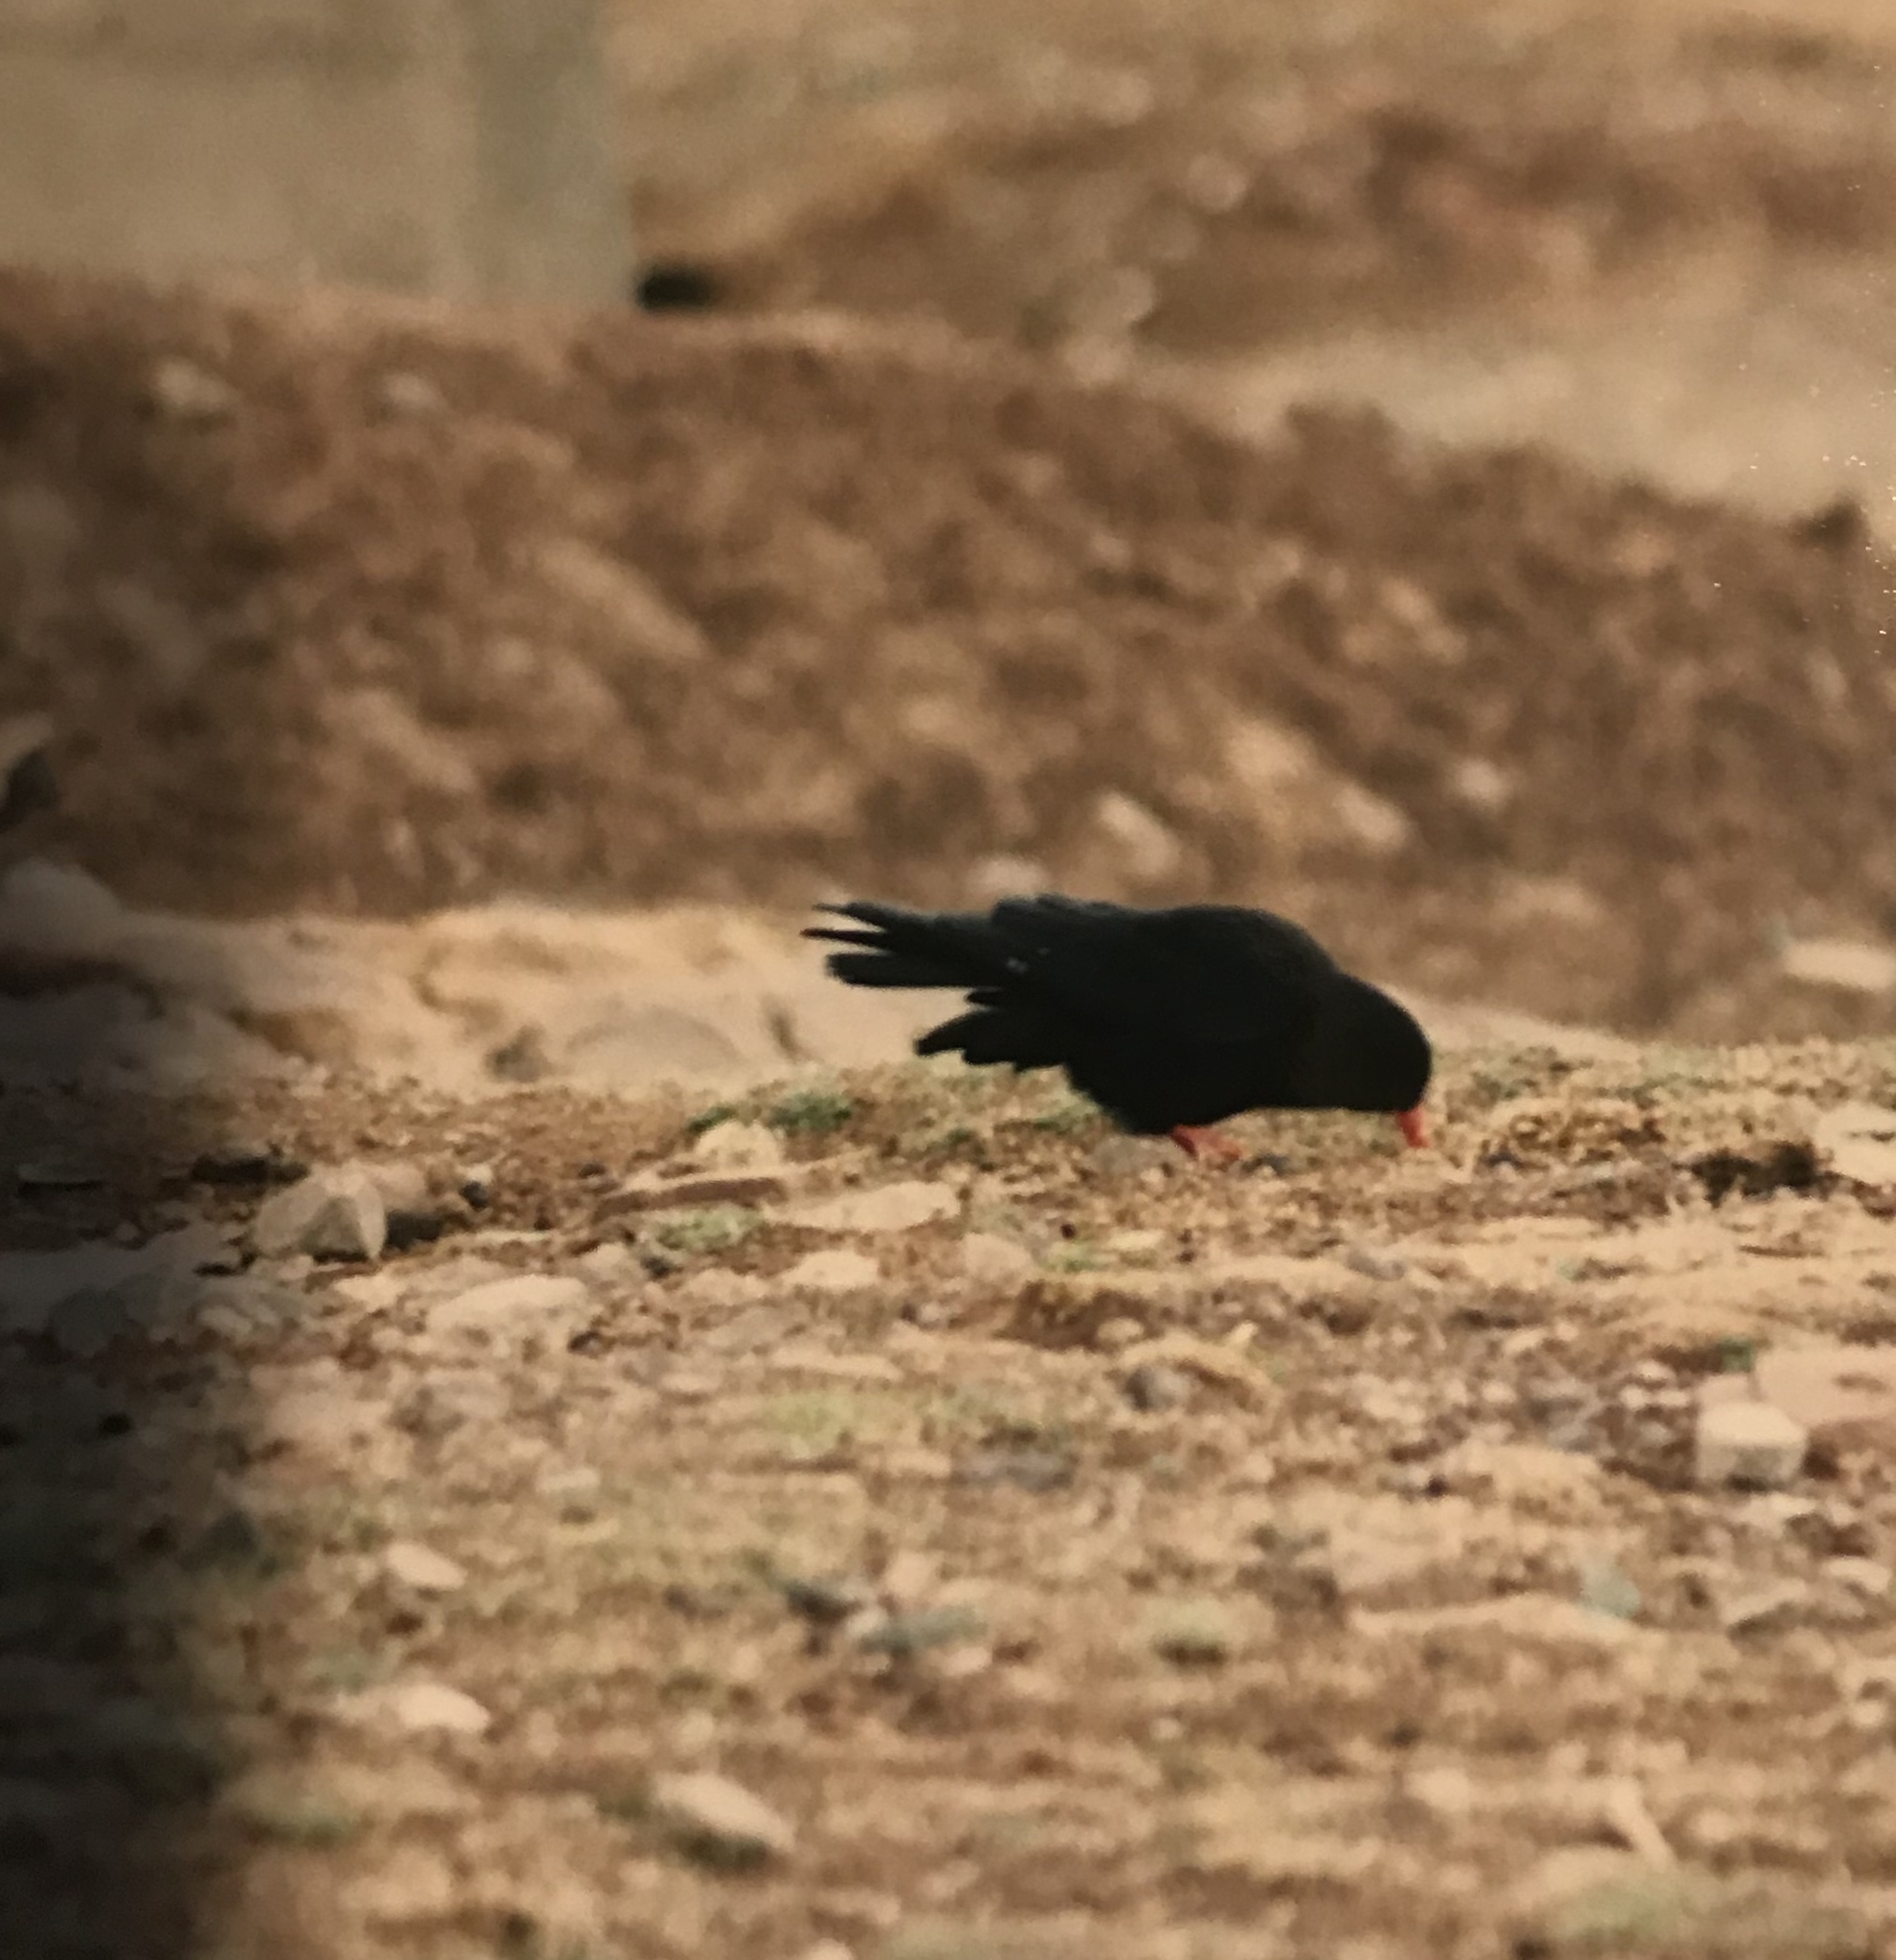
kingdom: Animalia
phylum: Chordata
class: Aves
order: Passeriformes
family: Corvidae
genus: Pyrrhocorax
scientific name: Pyrrhocorax pyrrhocorax
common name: Red-billed chough
